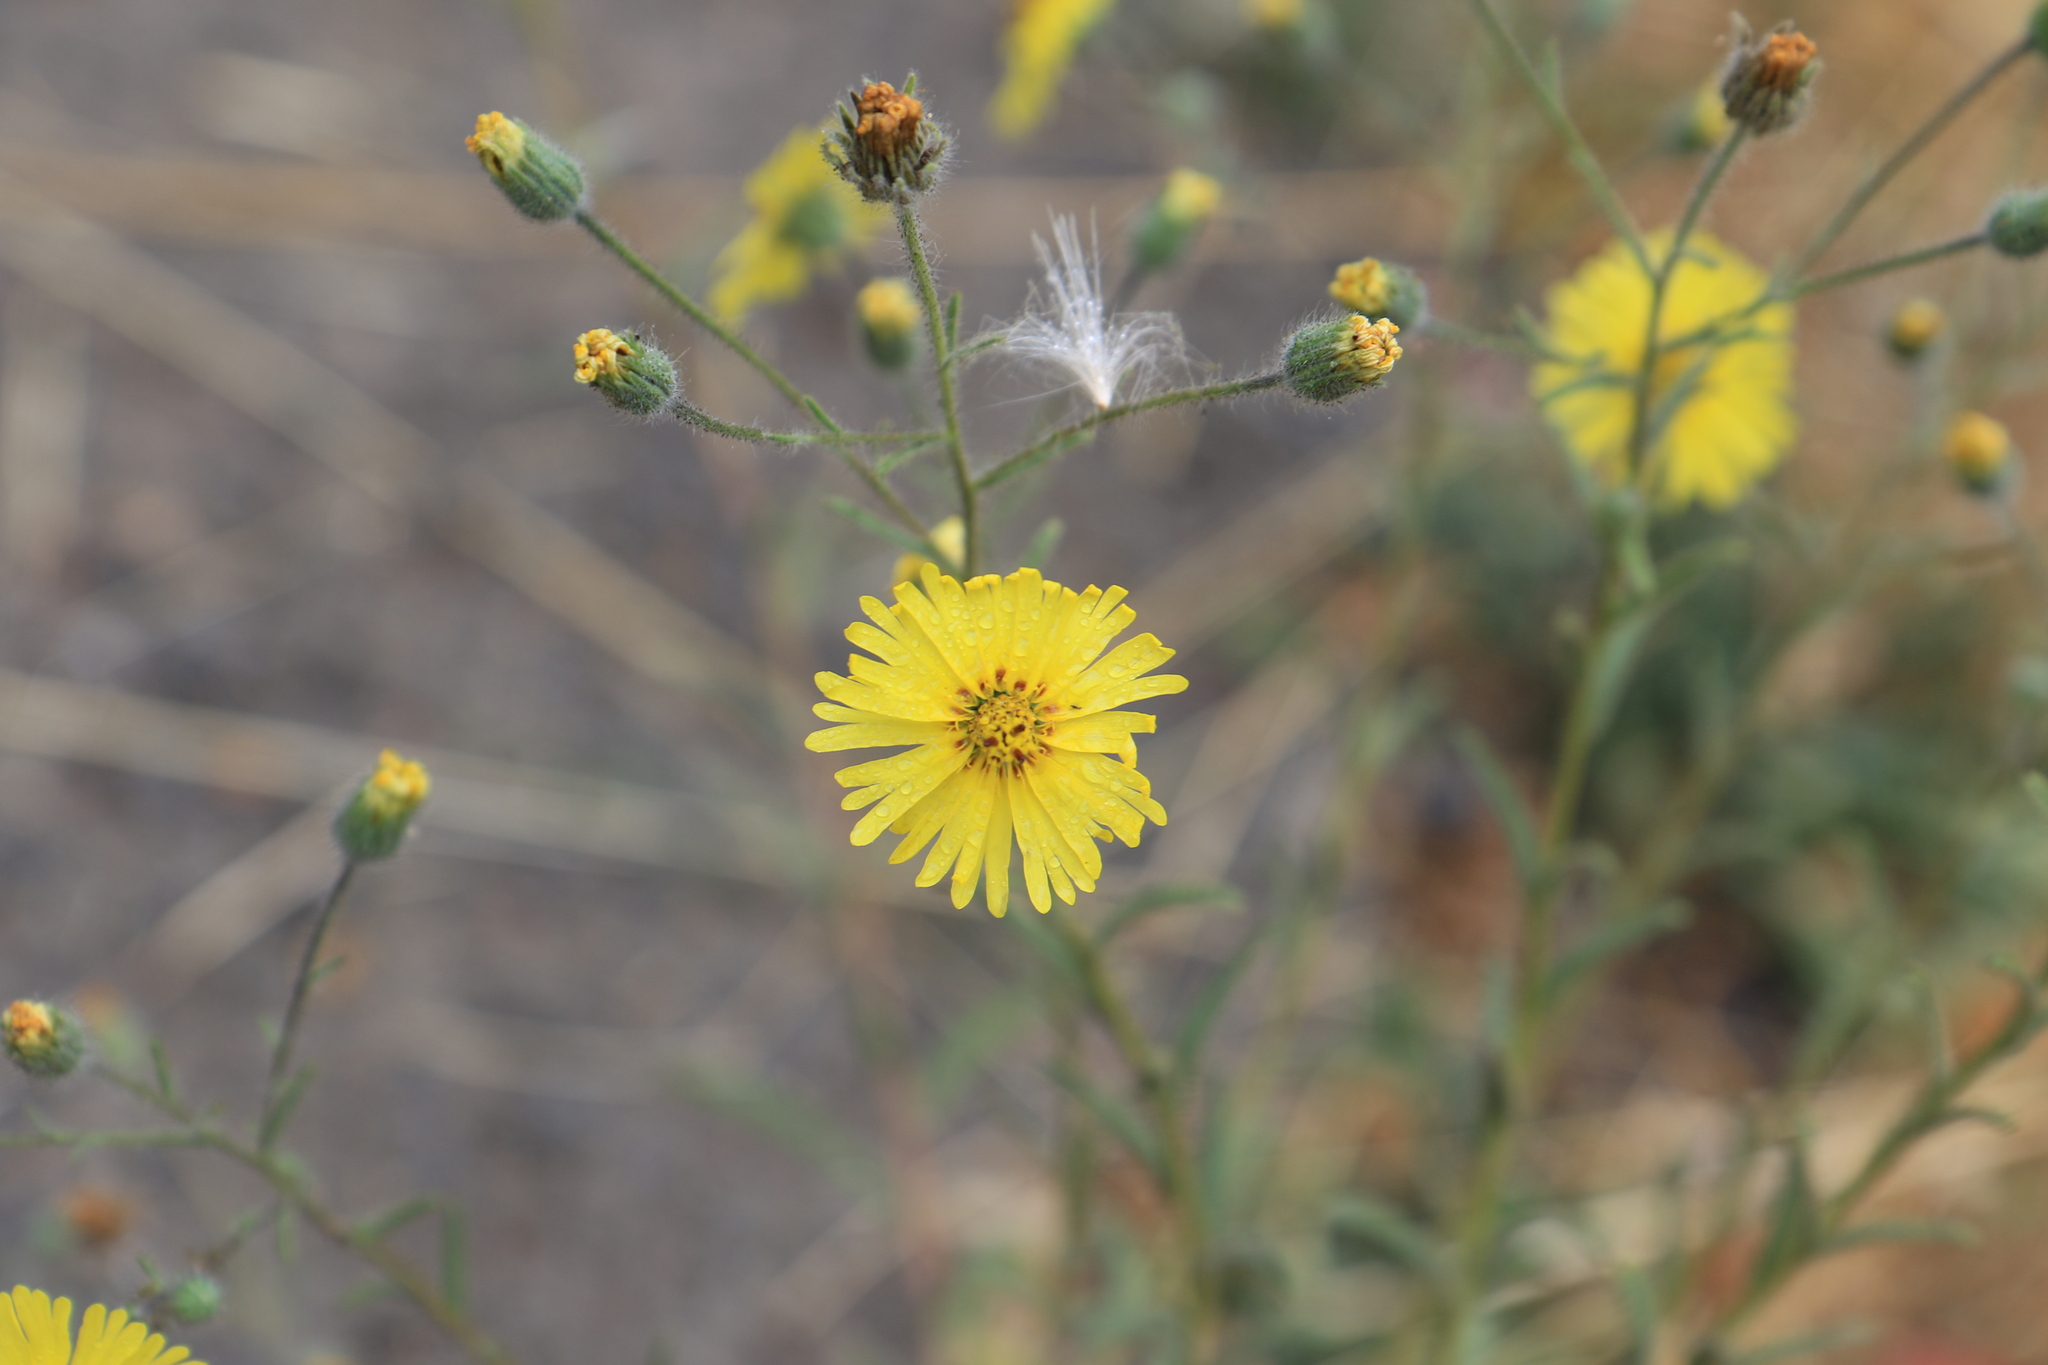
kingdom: Plantae
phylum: Tracheophyta
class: Magnoliopsida
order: Asterales
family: Asteraceae
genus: Madia
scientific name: Madia elegans
